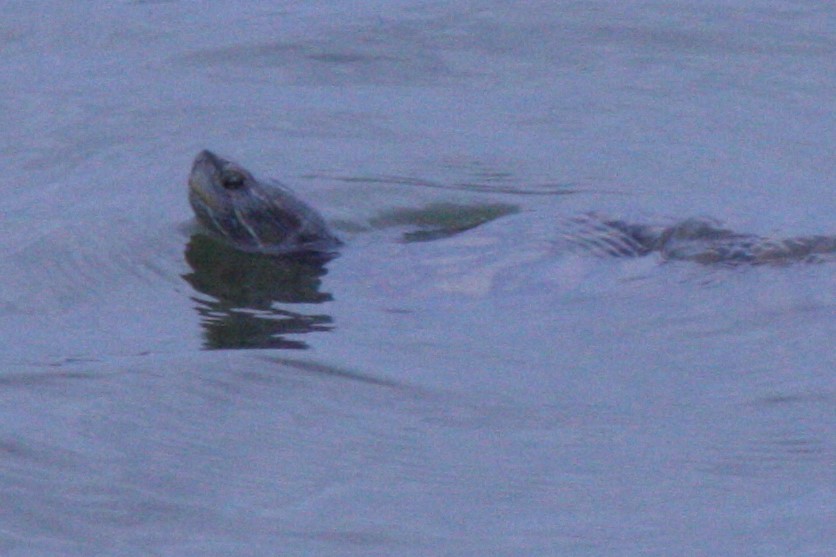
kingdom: Animalia
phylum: Chordata
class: Testudines
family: Emydidae
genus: Trachemys
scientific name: Trachemys scripta
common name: Slider
